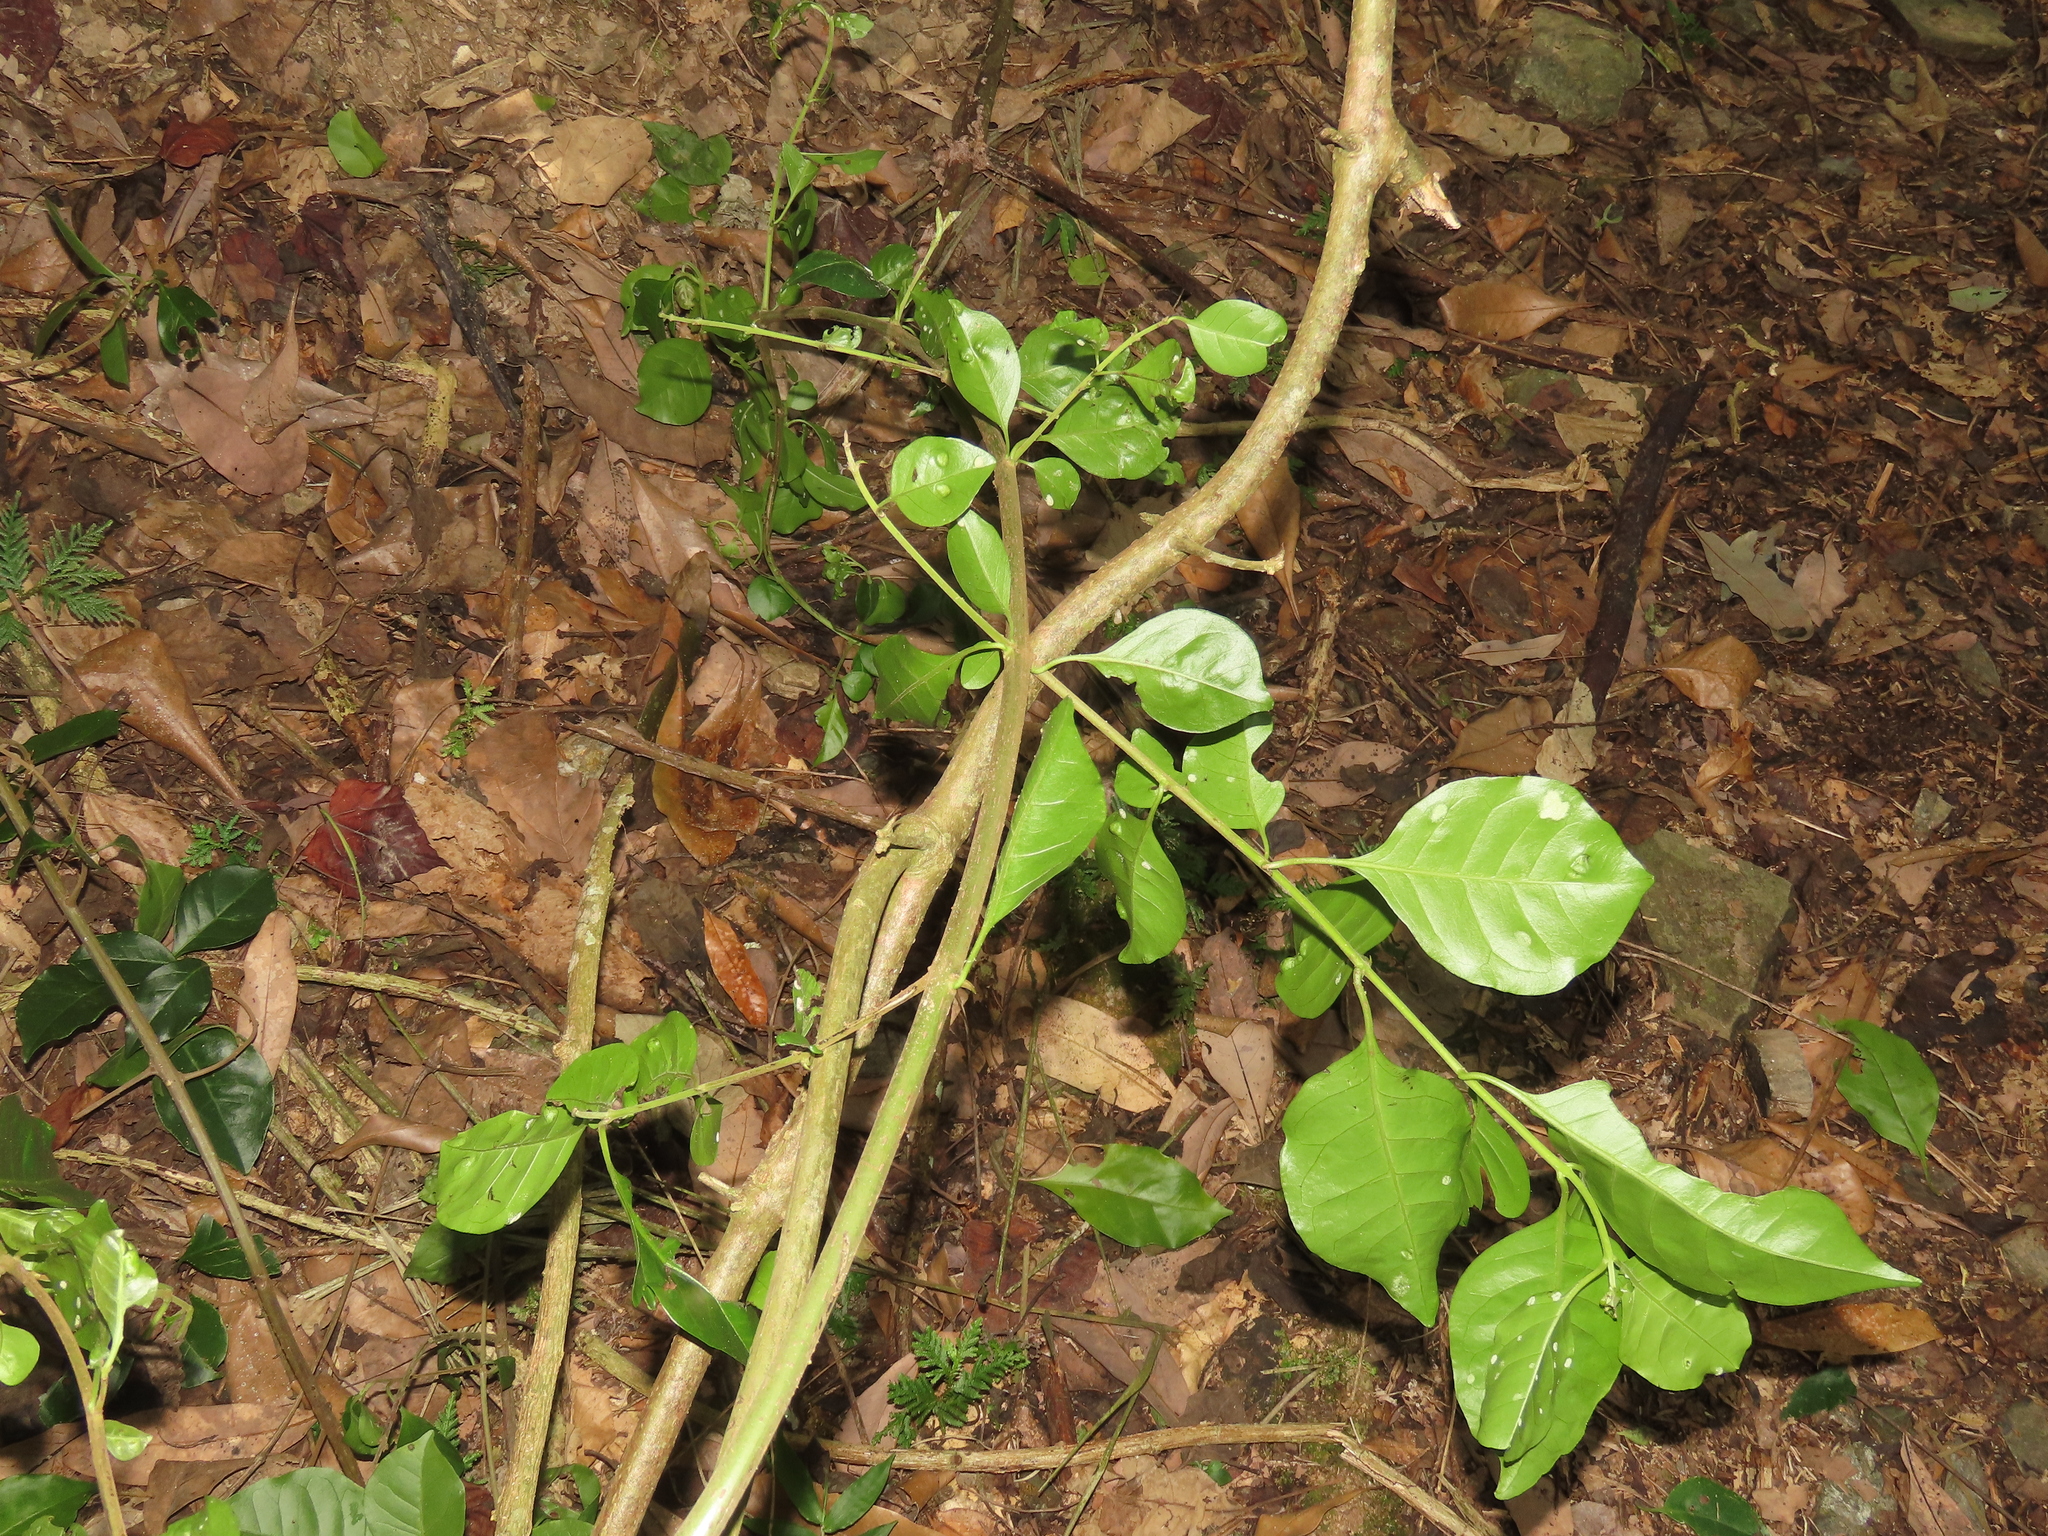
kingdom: Plantae
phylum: Tracheophyta
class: Magnoliopsida
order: Caryophyllales
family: Nyctaginaceae
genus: Pisonia
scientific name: Pisonia aculeata
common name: Cockspur vine
